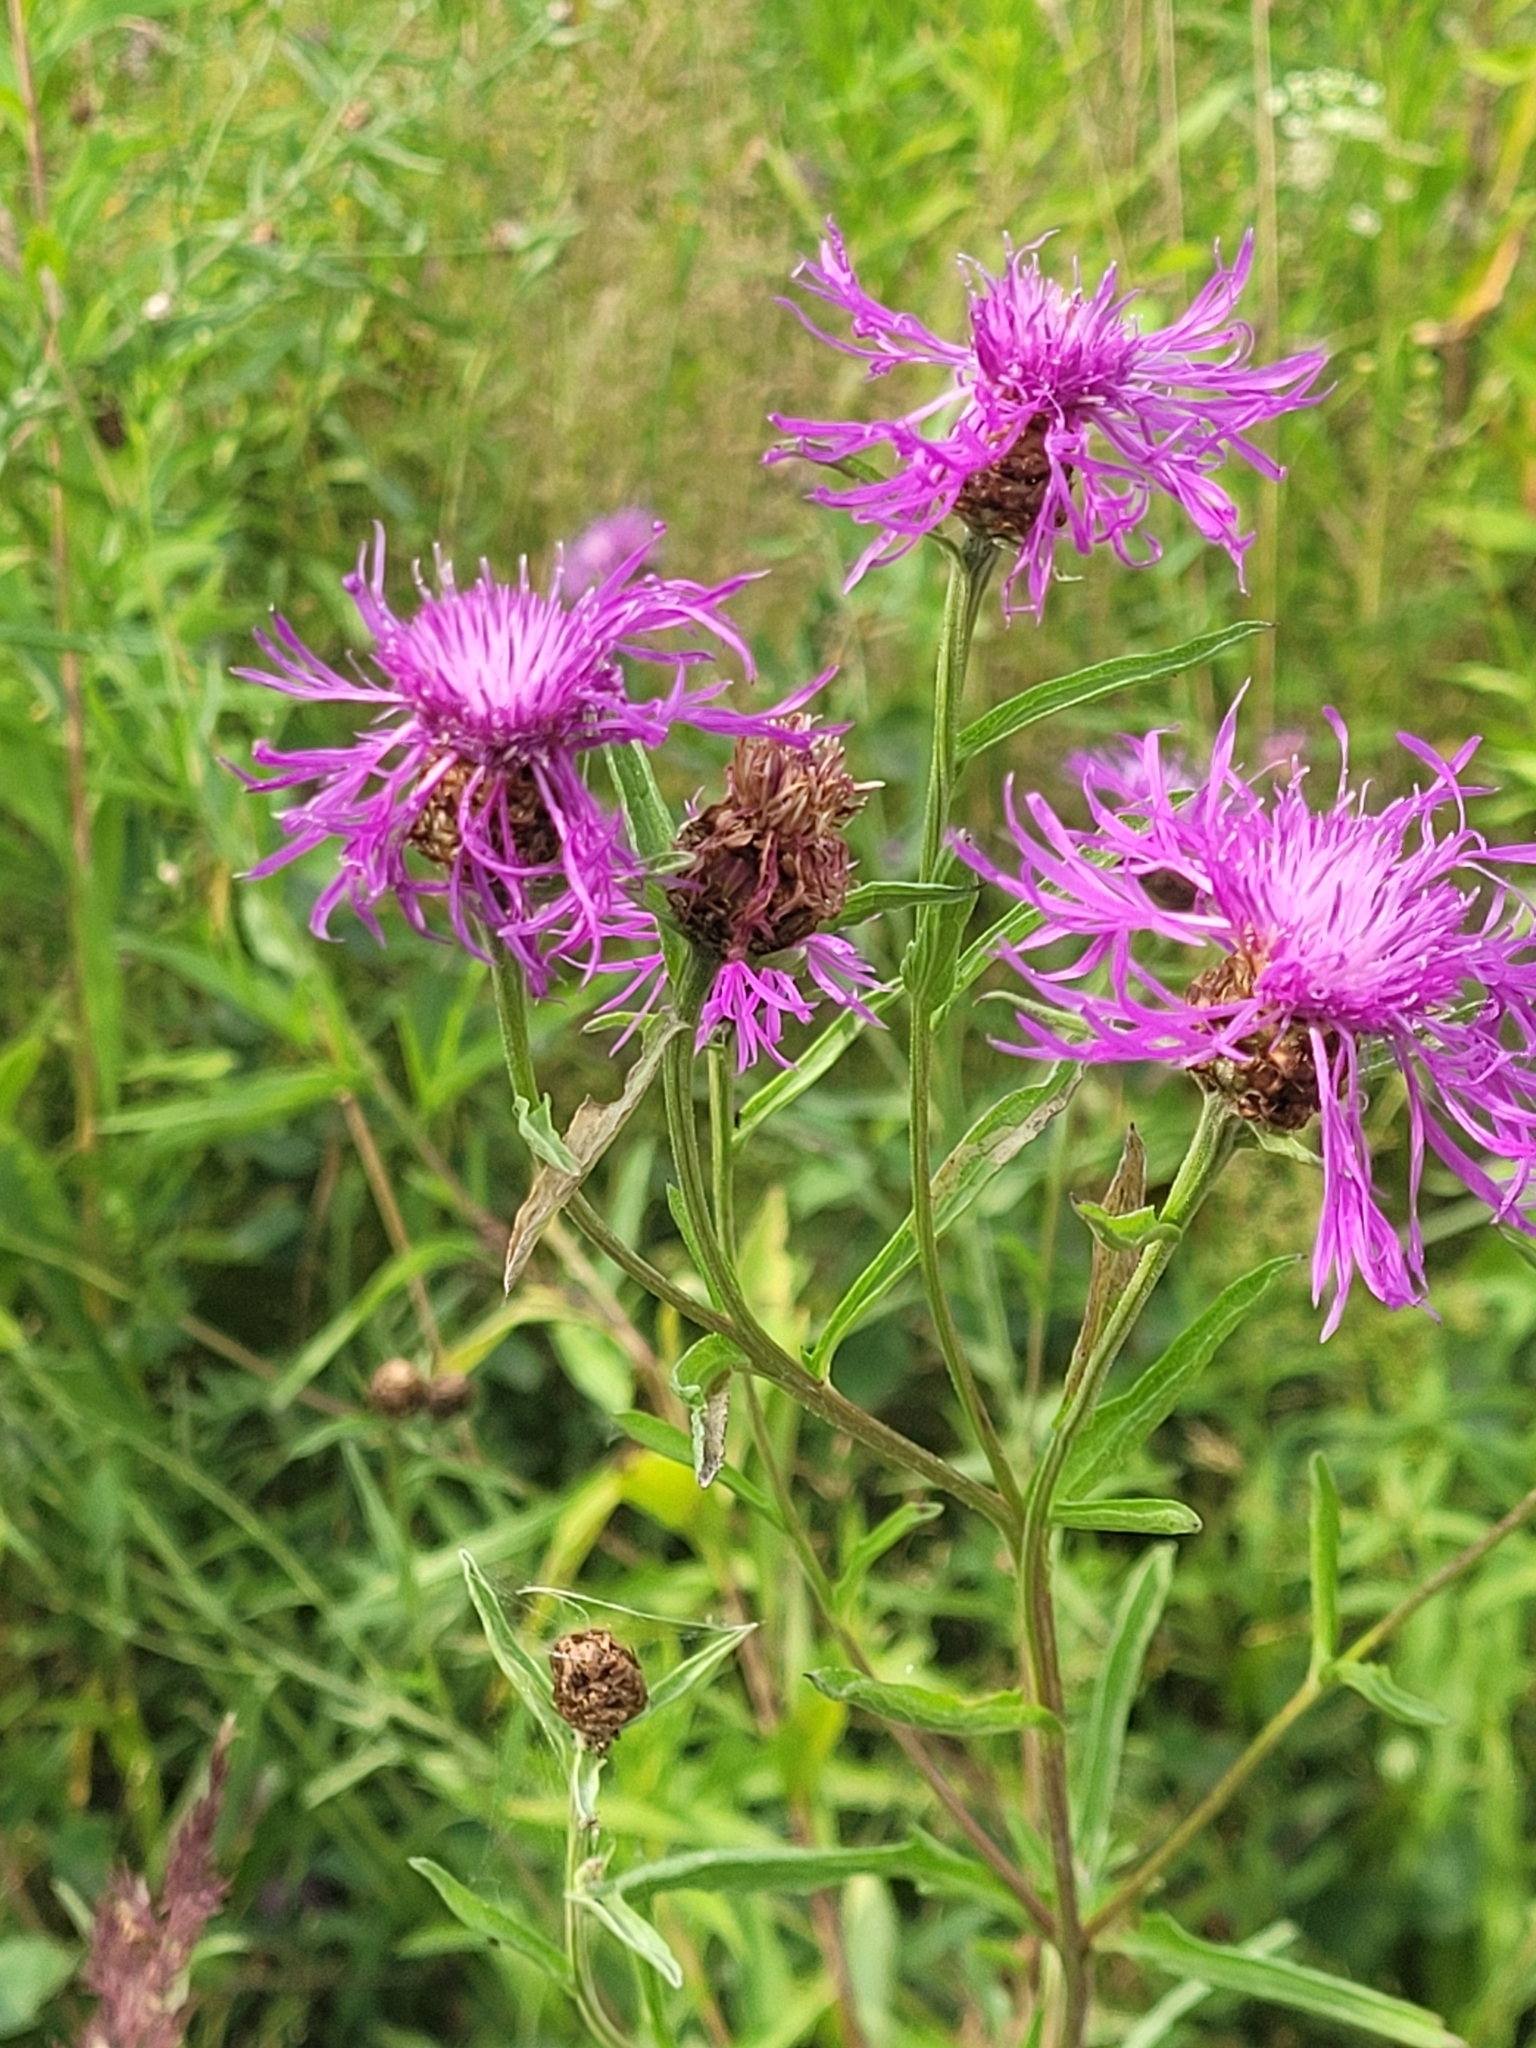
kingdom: Plantae
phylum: Tracheophyta
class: Magnoliopsida
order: Asterales
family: Asteraceae
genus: Centaurea
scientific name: Centaurea jacea
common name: Brown knapweed
